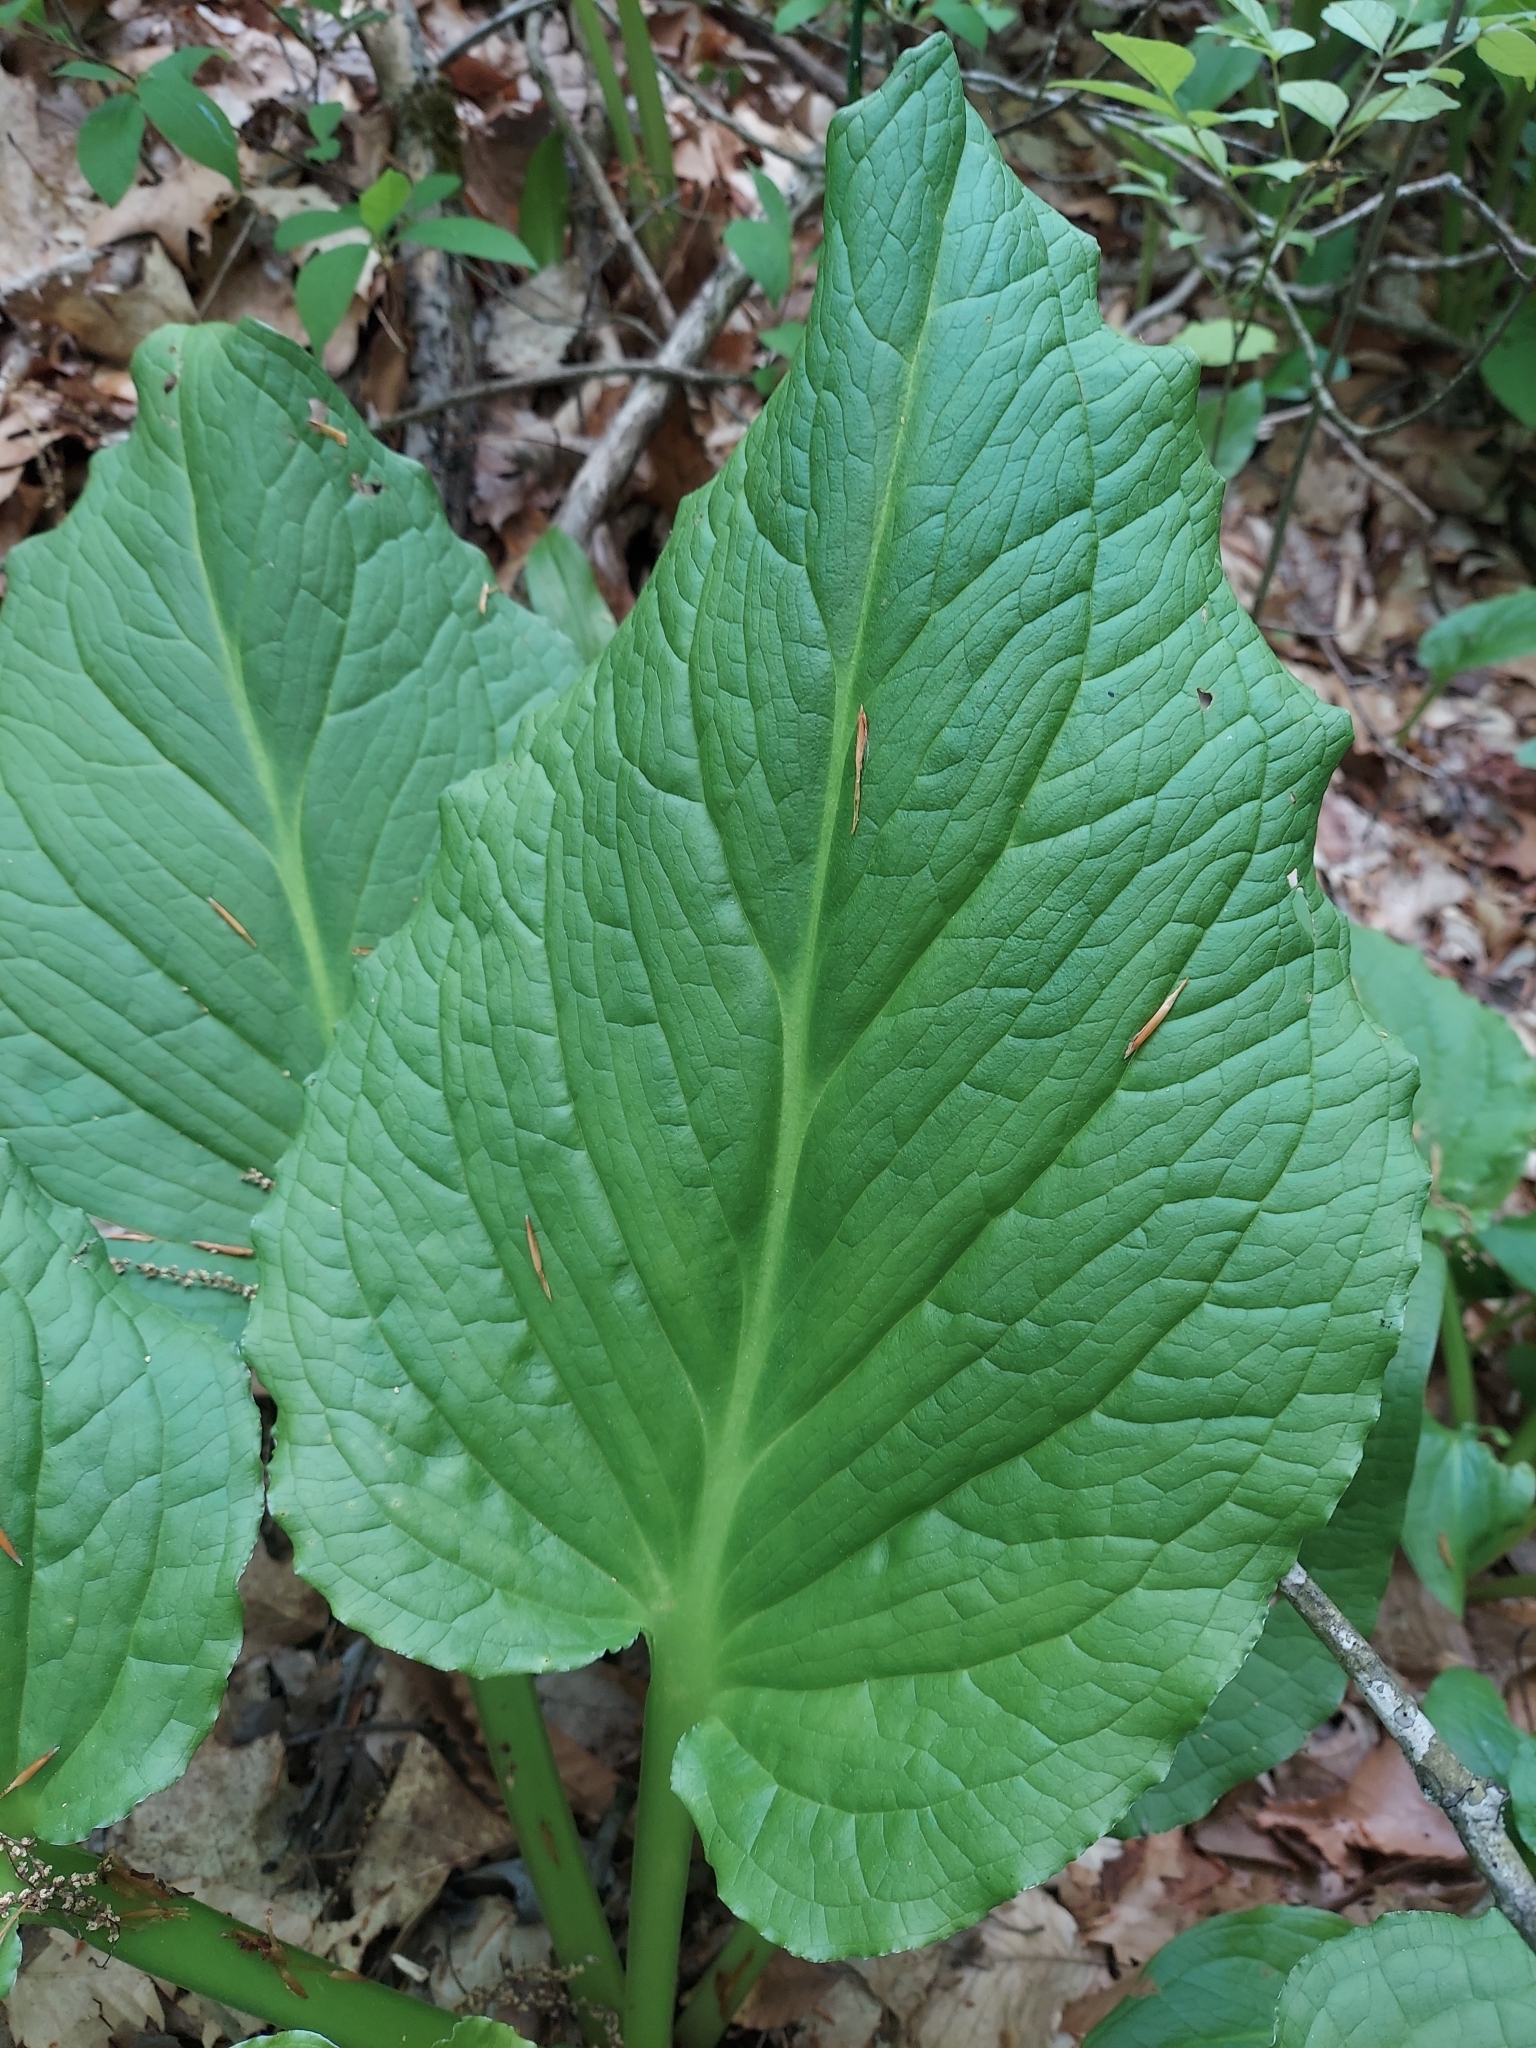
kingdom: Plantae
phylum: Tracheophyta
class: Liliopsida
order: Alismatales
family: Araceae
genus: Symplocarpus
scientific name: Symplocarpus foetidus
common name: Eastern skunk cabbage
